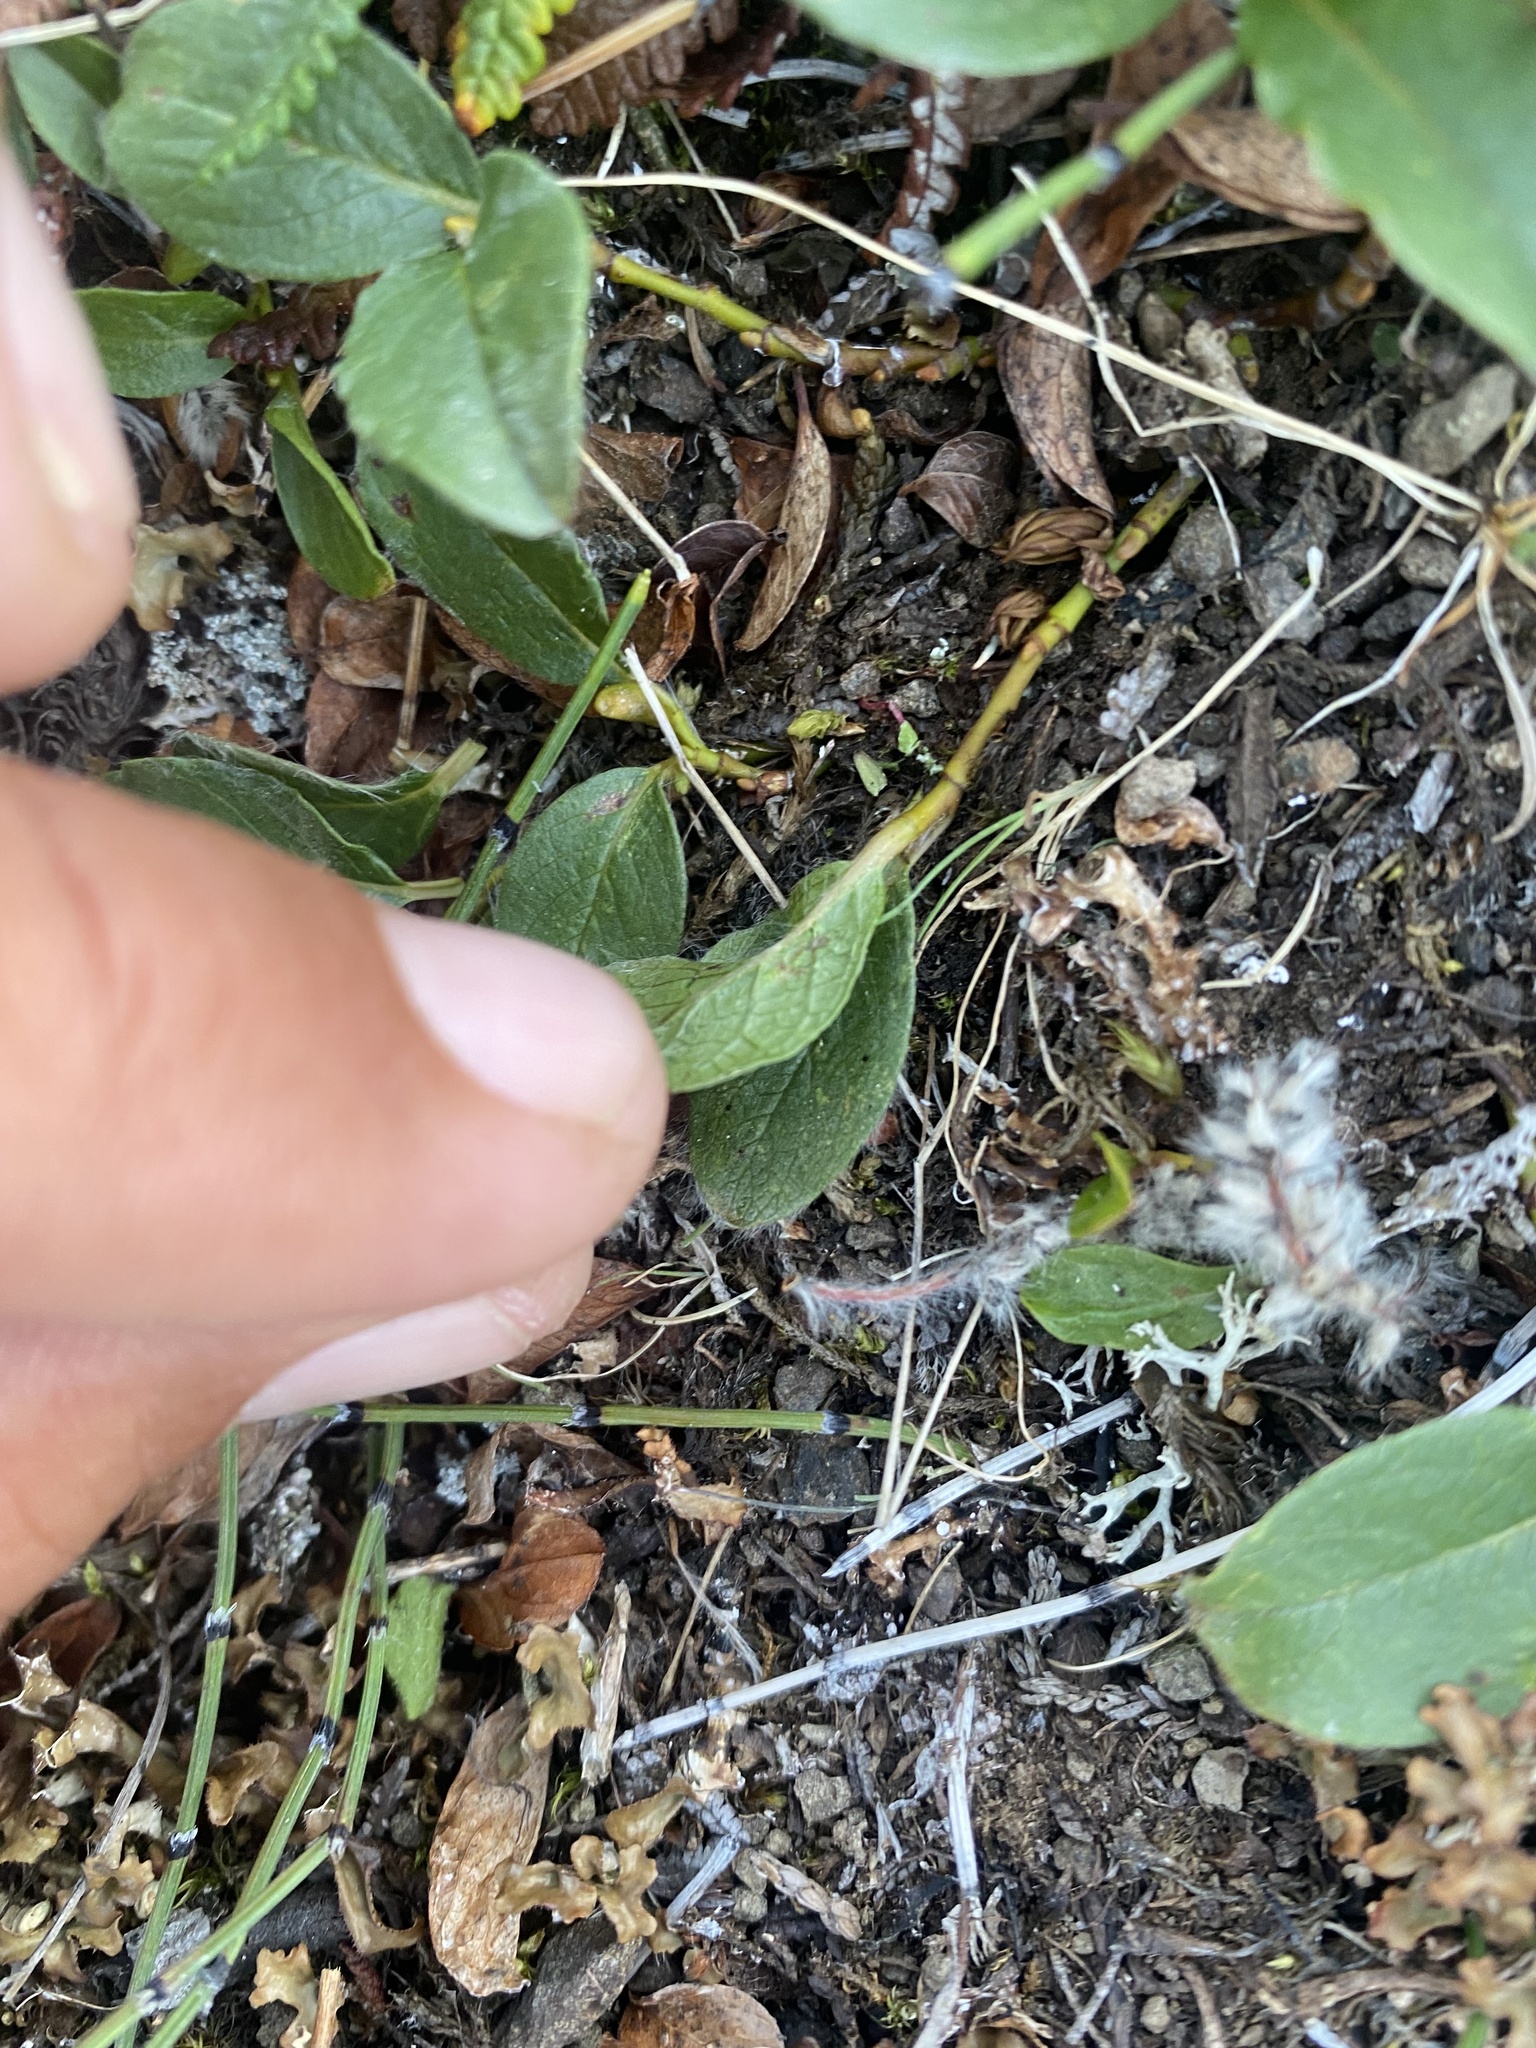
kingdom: Plantae
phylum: Tracheophyta
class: Magnoliopsida
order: Malpighiales
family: Salicaceae
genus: Salix
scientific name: Salix polaris
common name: Polar willow
